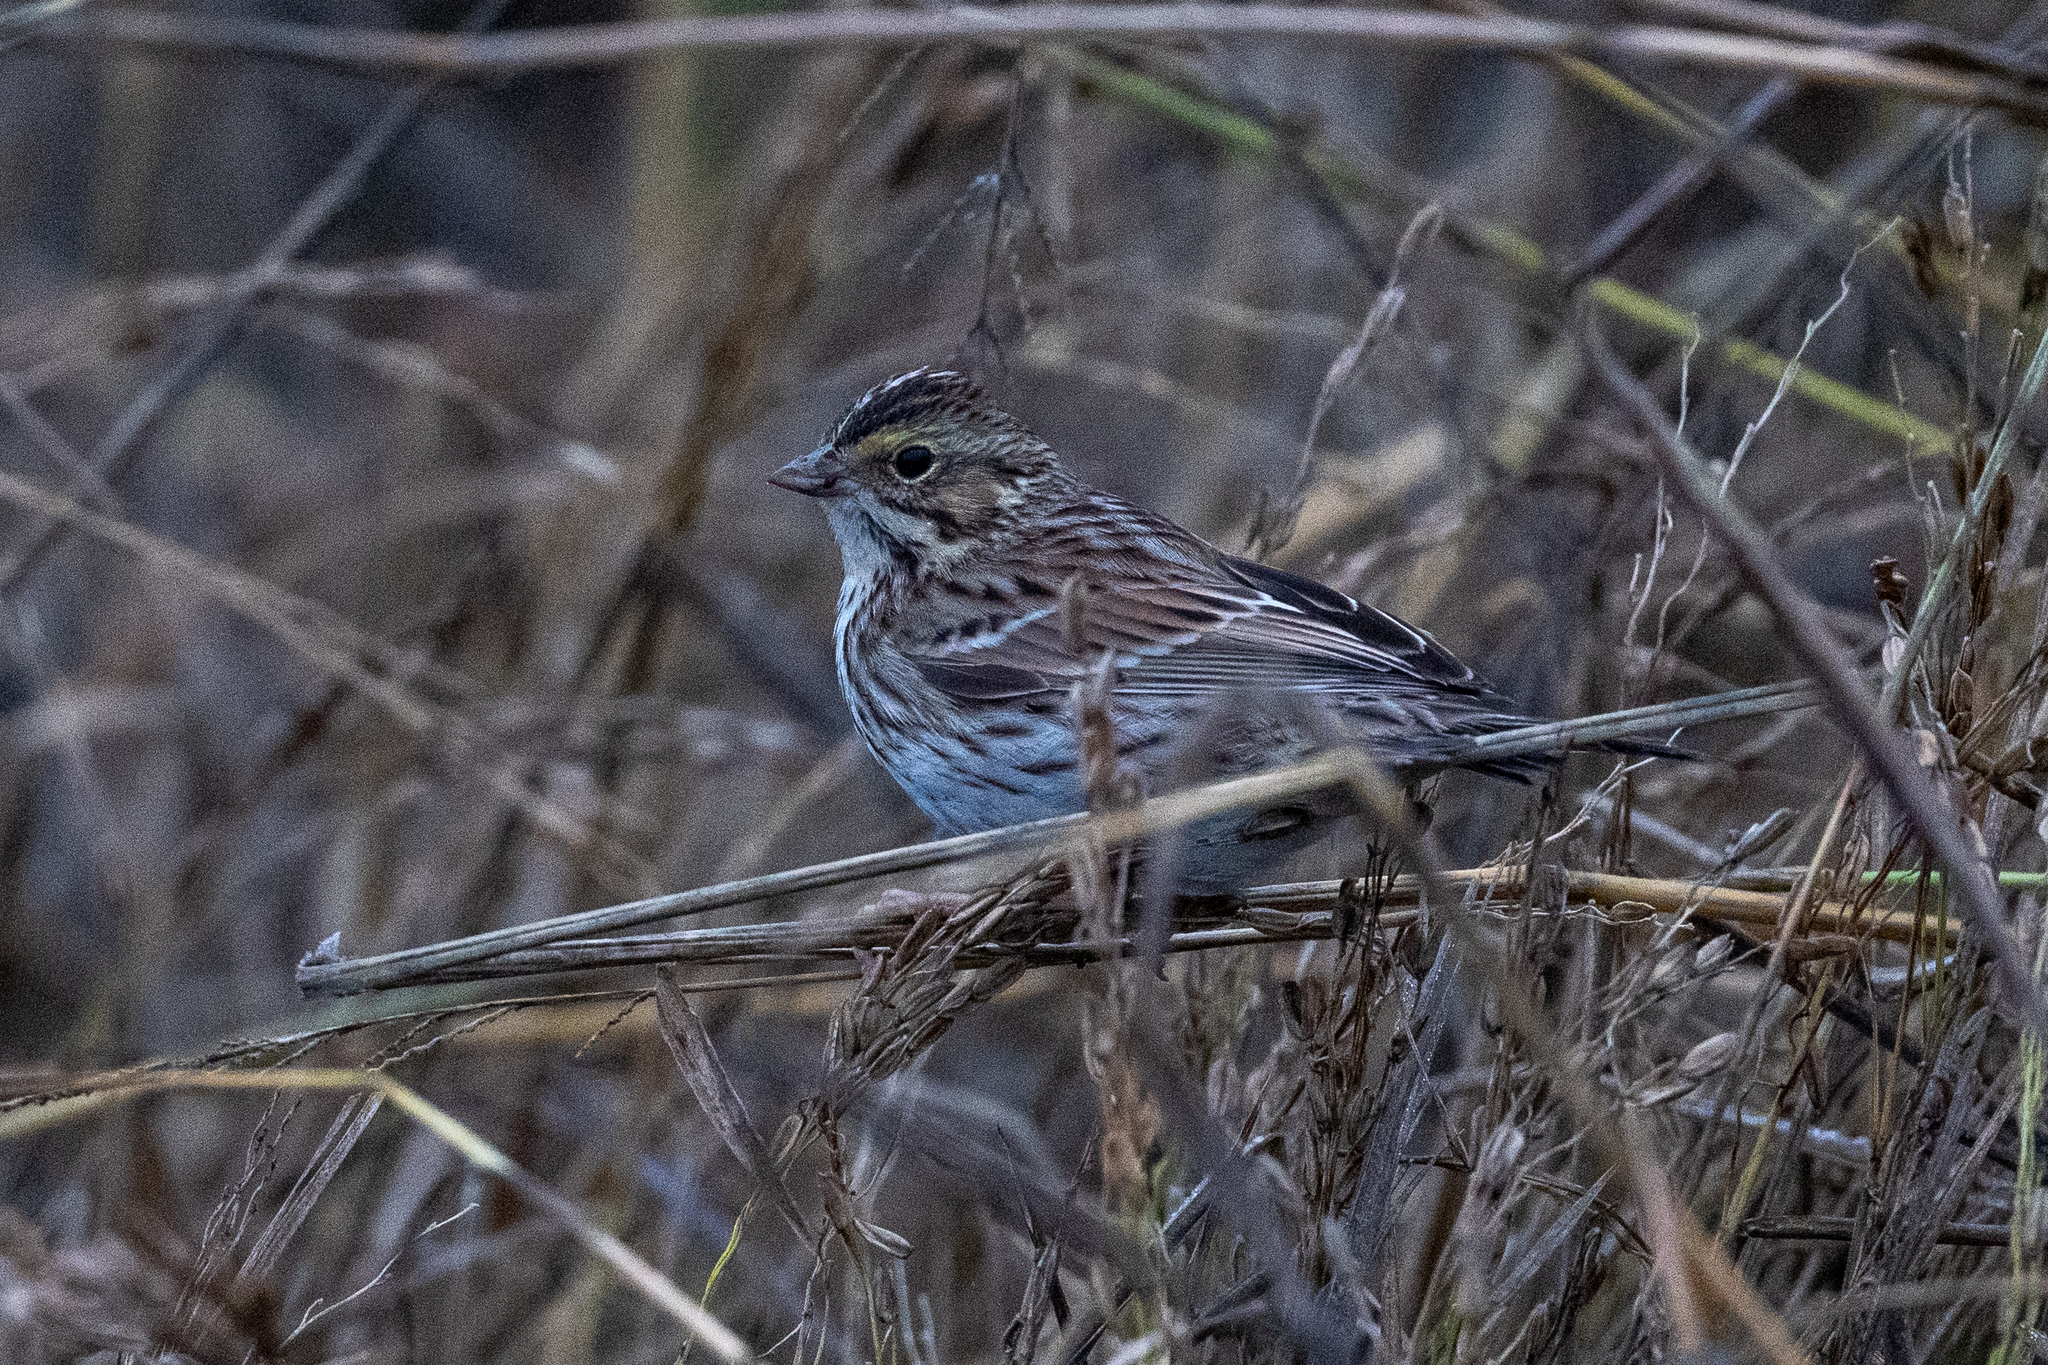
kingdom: Animalia
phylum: Chordata
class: Aves
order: Passeriformes
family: Passerellidae
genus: Passerculus
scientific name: Passerculus sandwichensis
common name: Savannah sparrow
